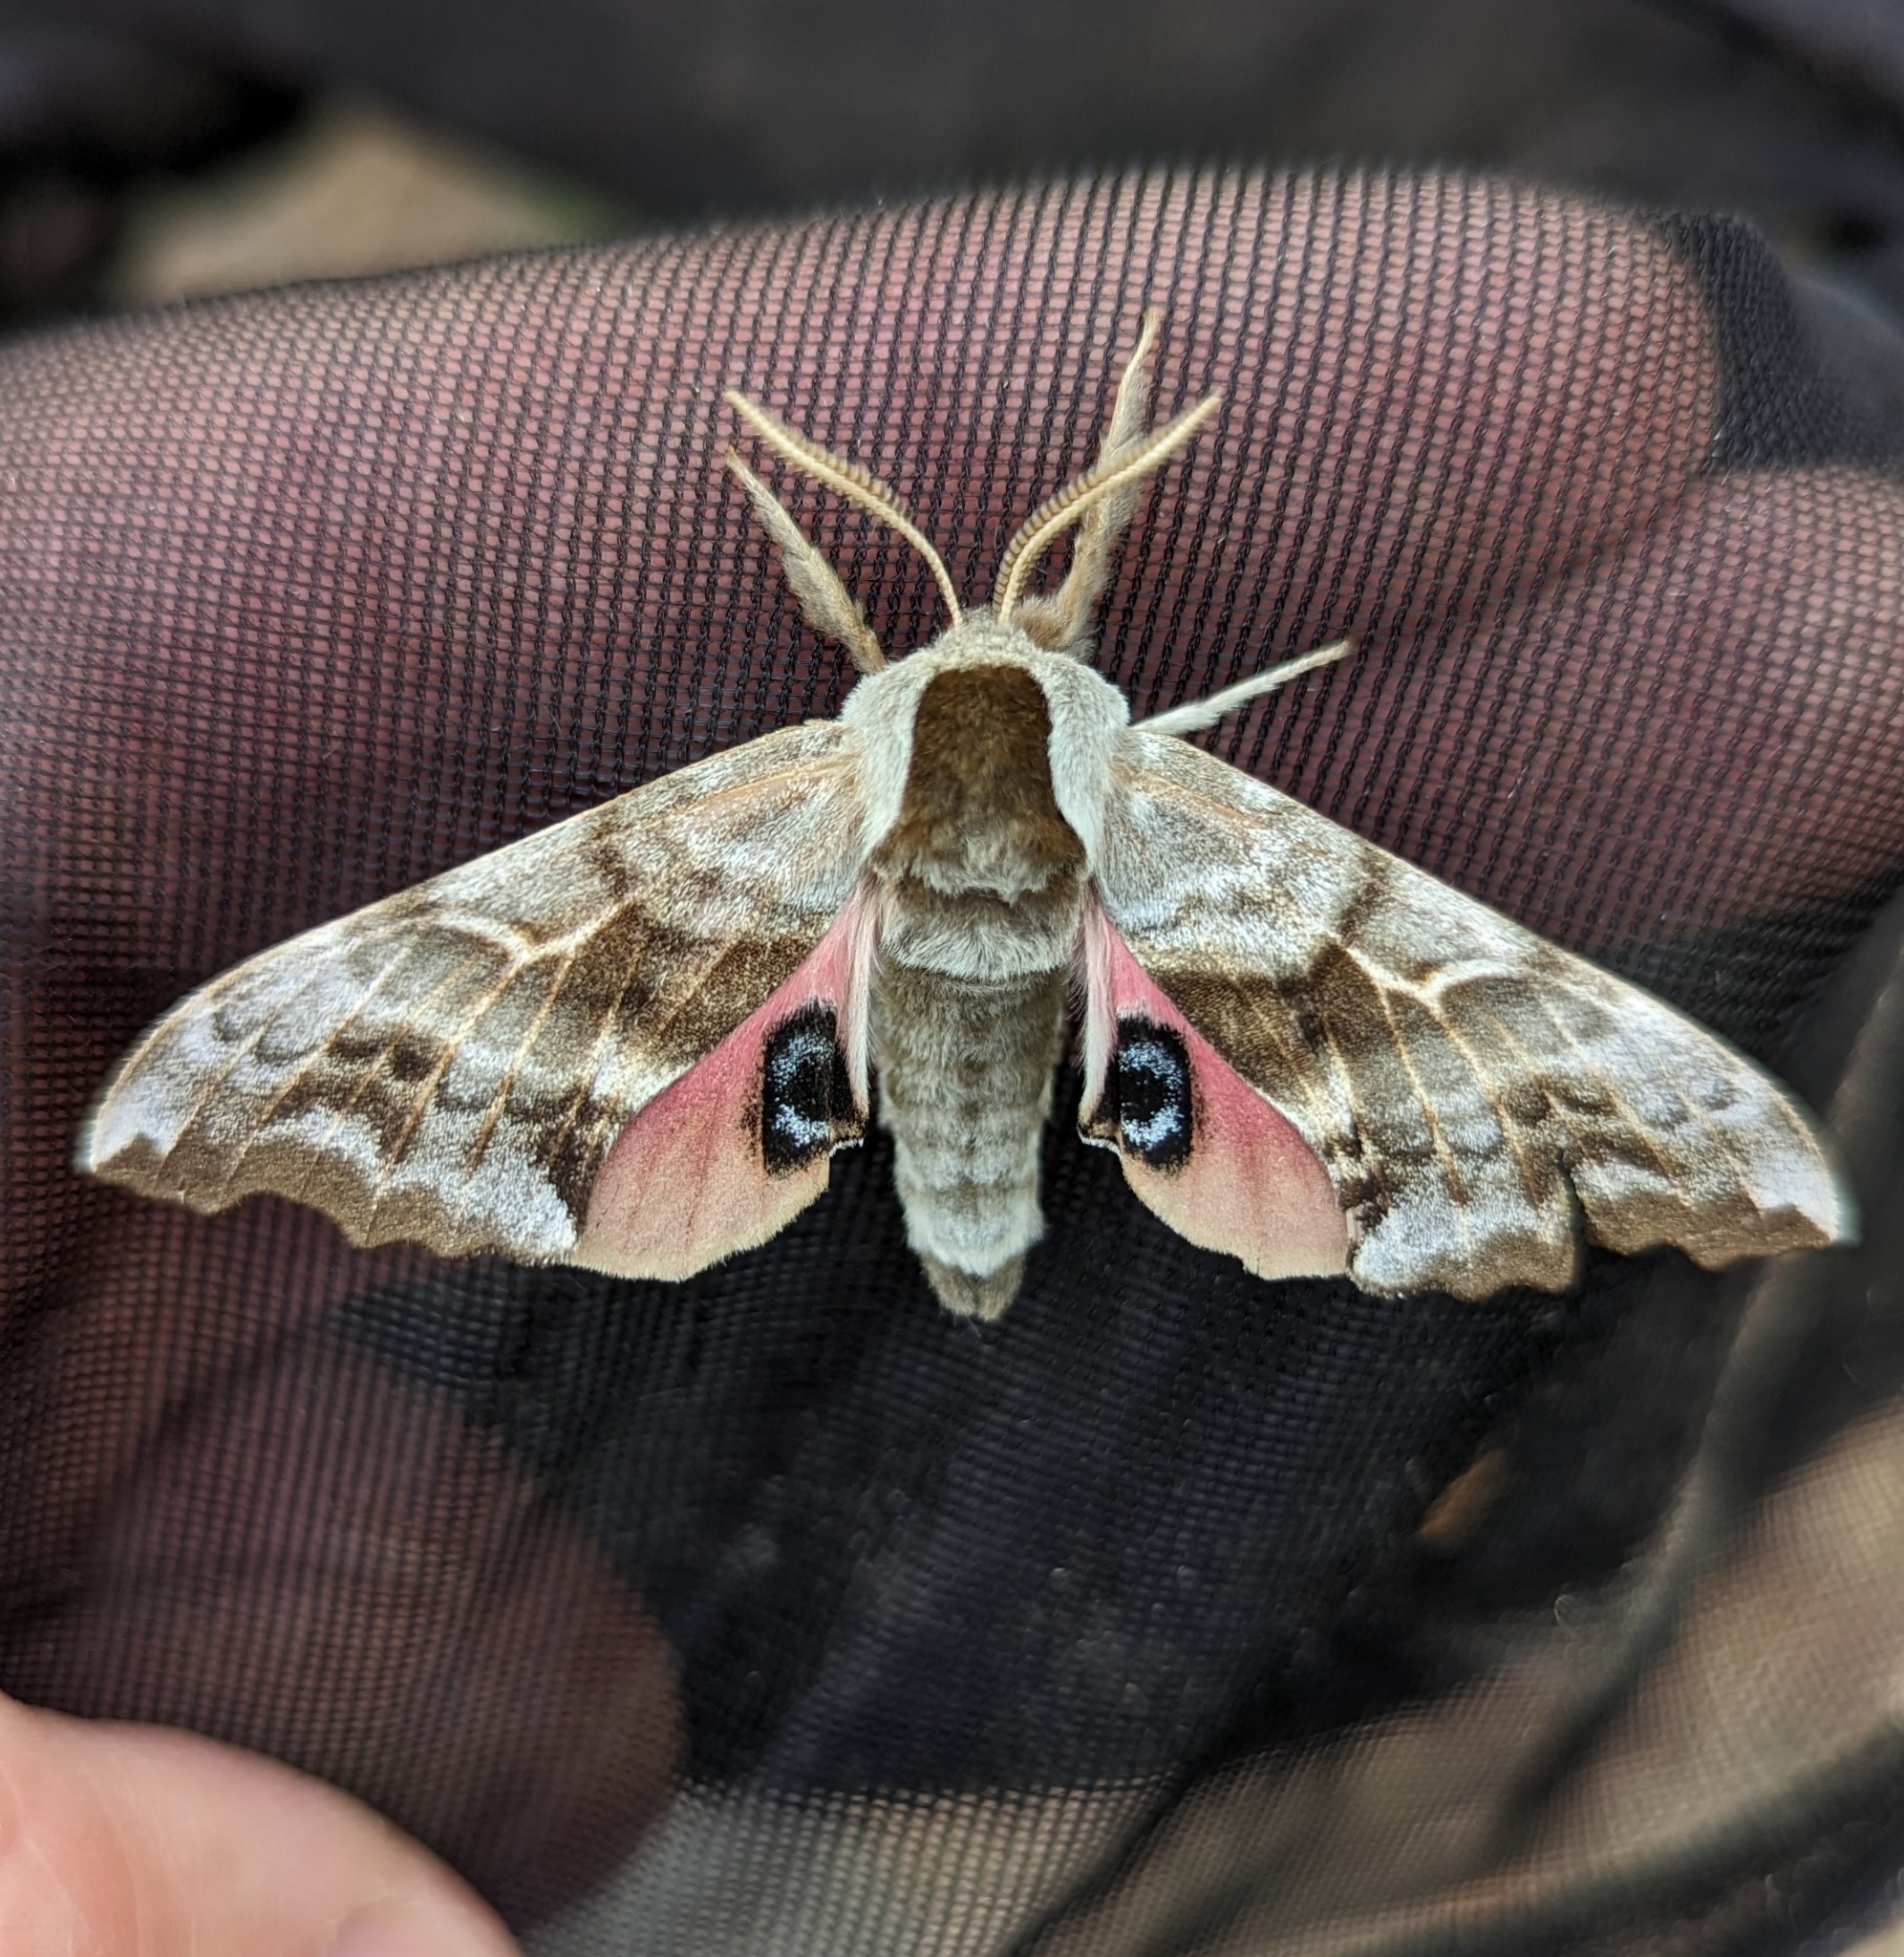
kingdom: Animalia
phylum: Arthropoda
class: Insecta
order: Lepidoptera
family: Sphingidae
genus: Smerinthus
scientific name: Smerinthus cerisyi
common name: Cerisy's sphinx moth
